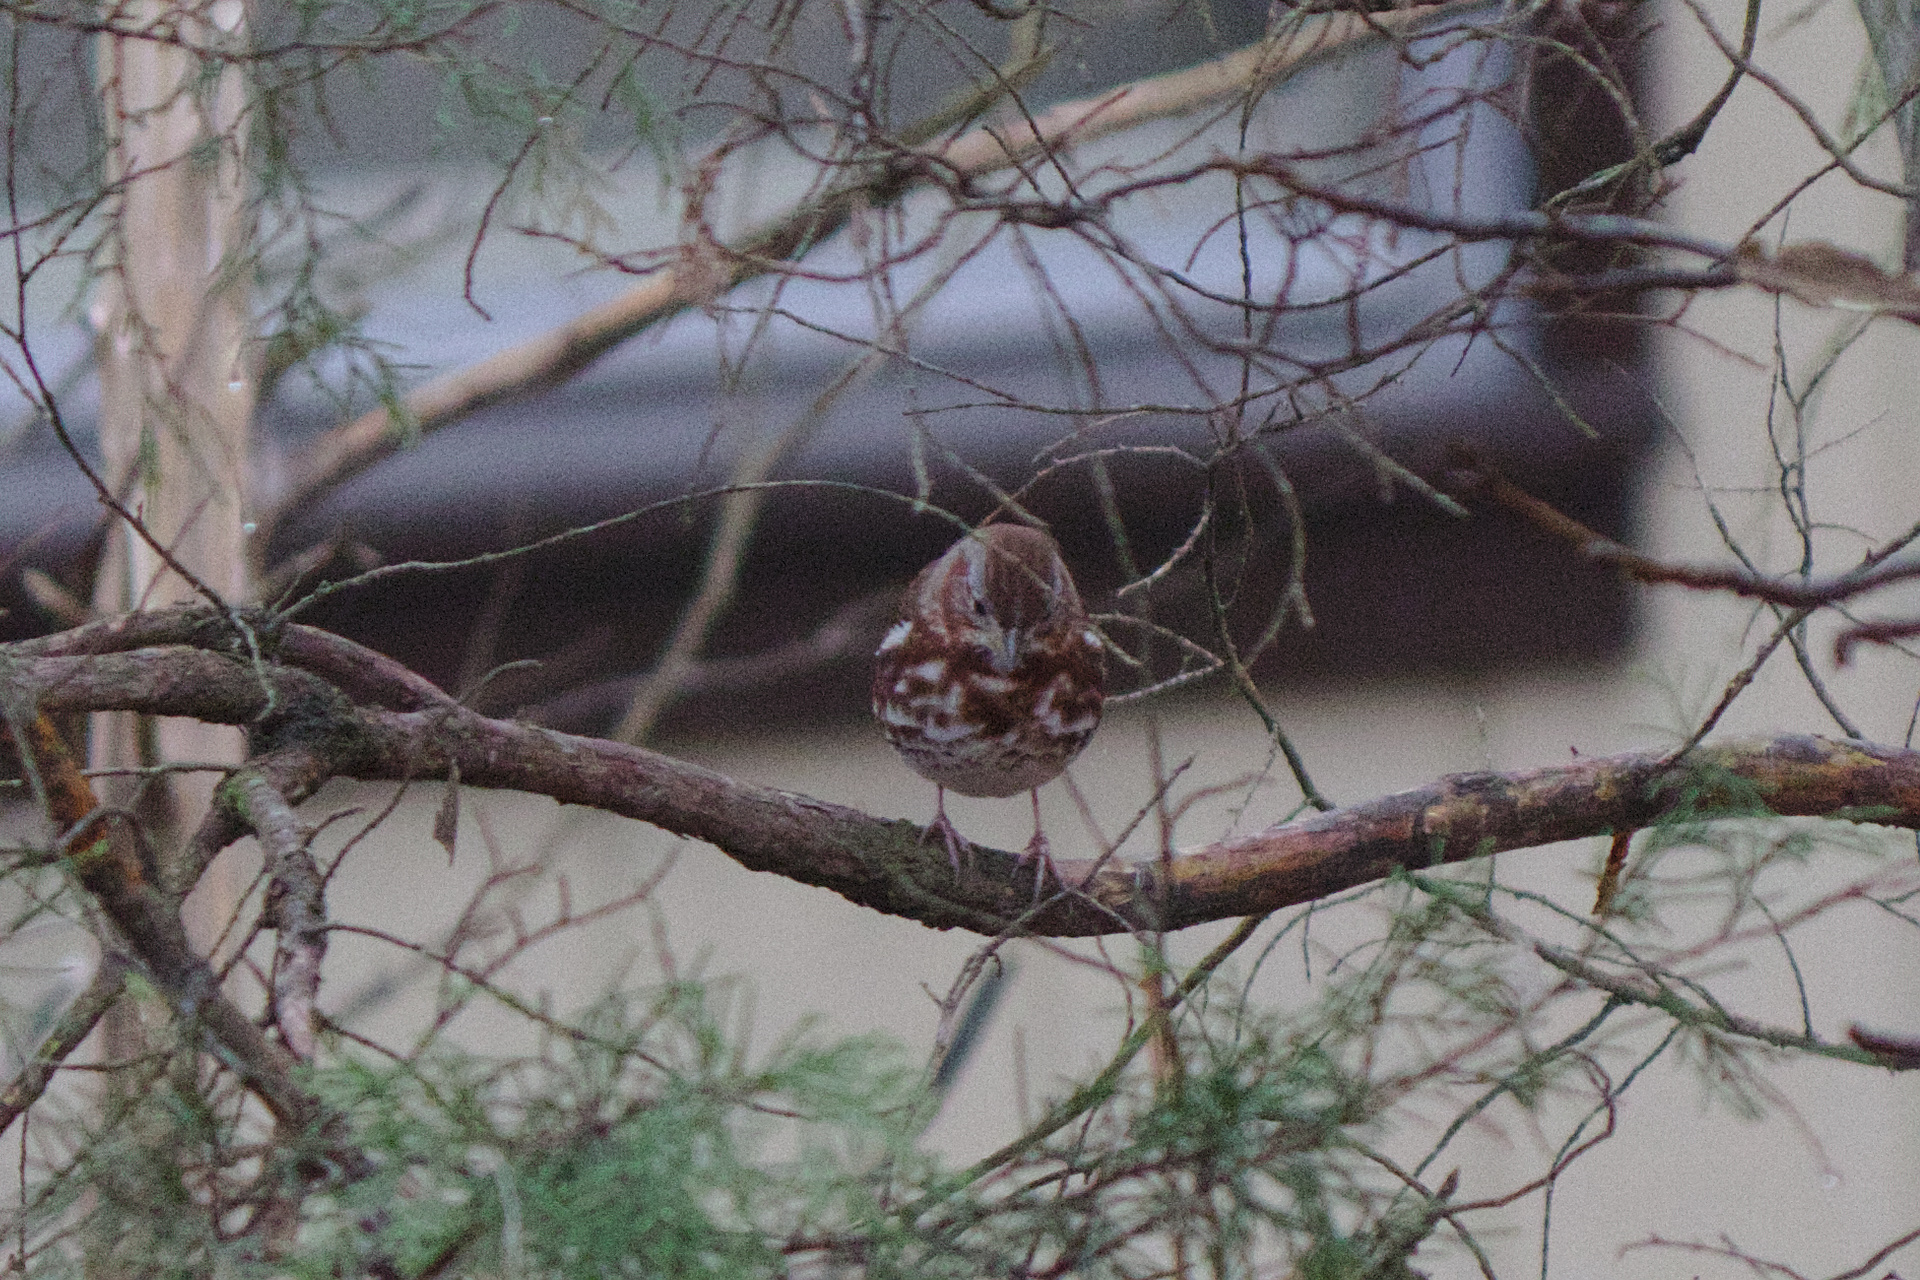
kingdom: Animalia
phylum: Chordata
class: Aves
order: Passeriformes
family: Passerellidae
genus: Passerella
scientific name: Passerella iliaca
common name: Fox sparrow
